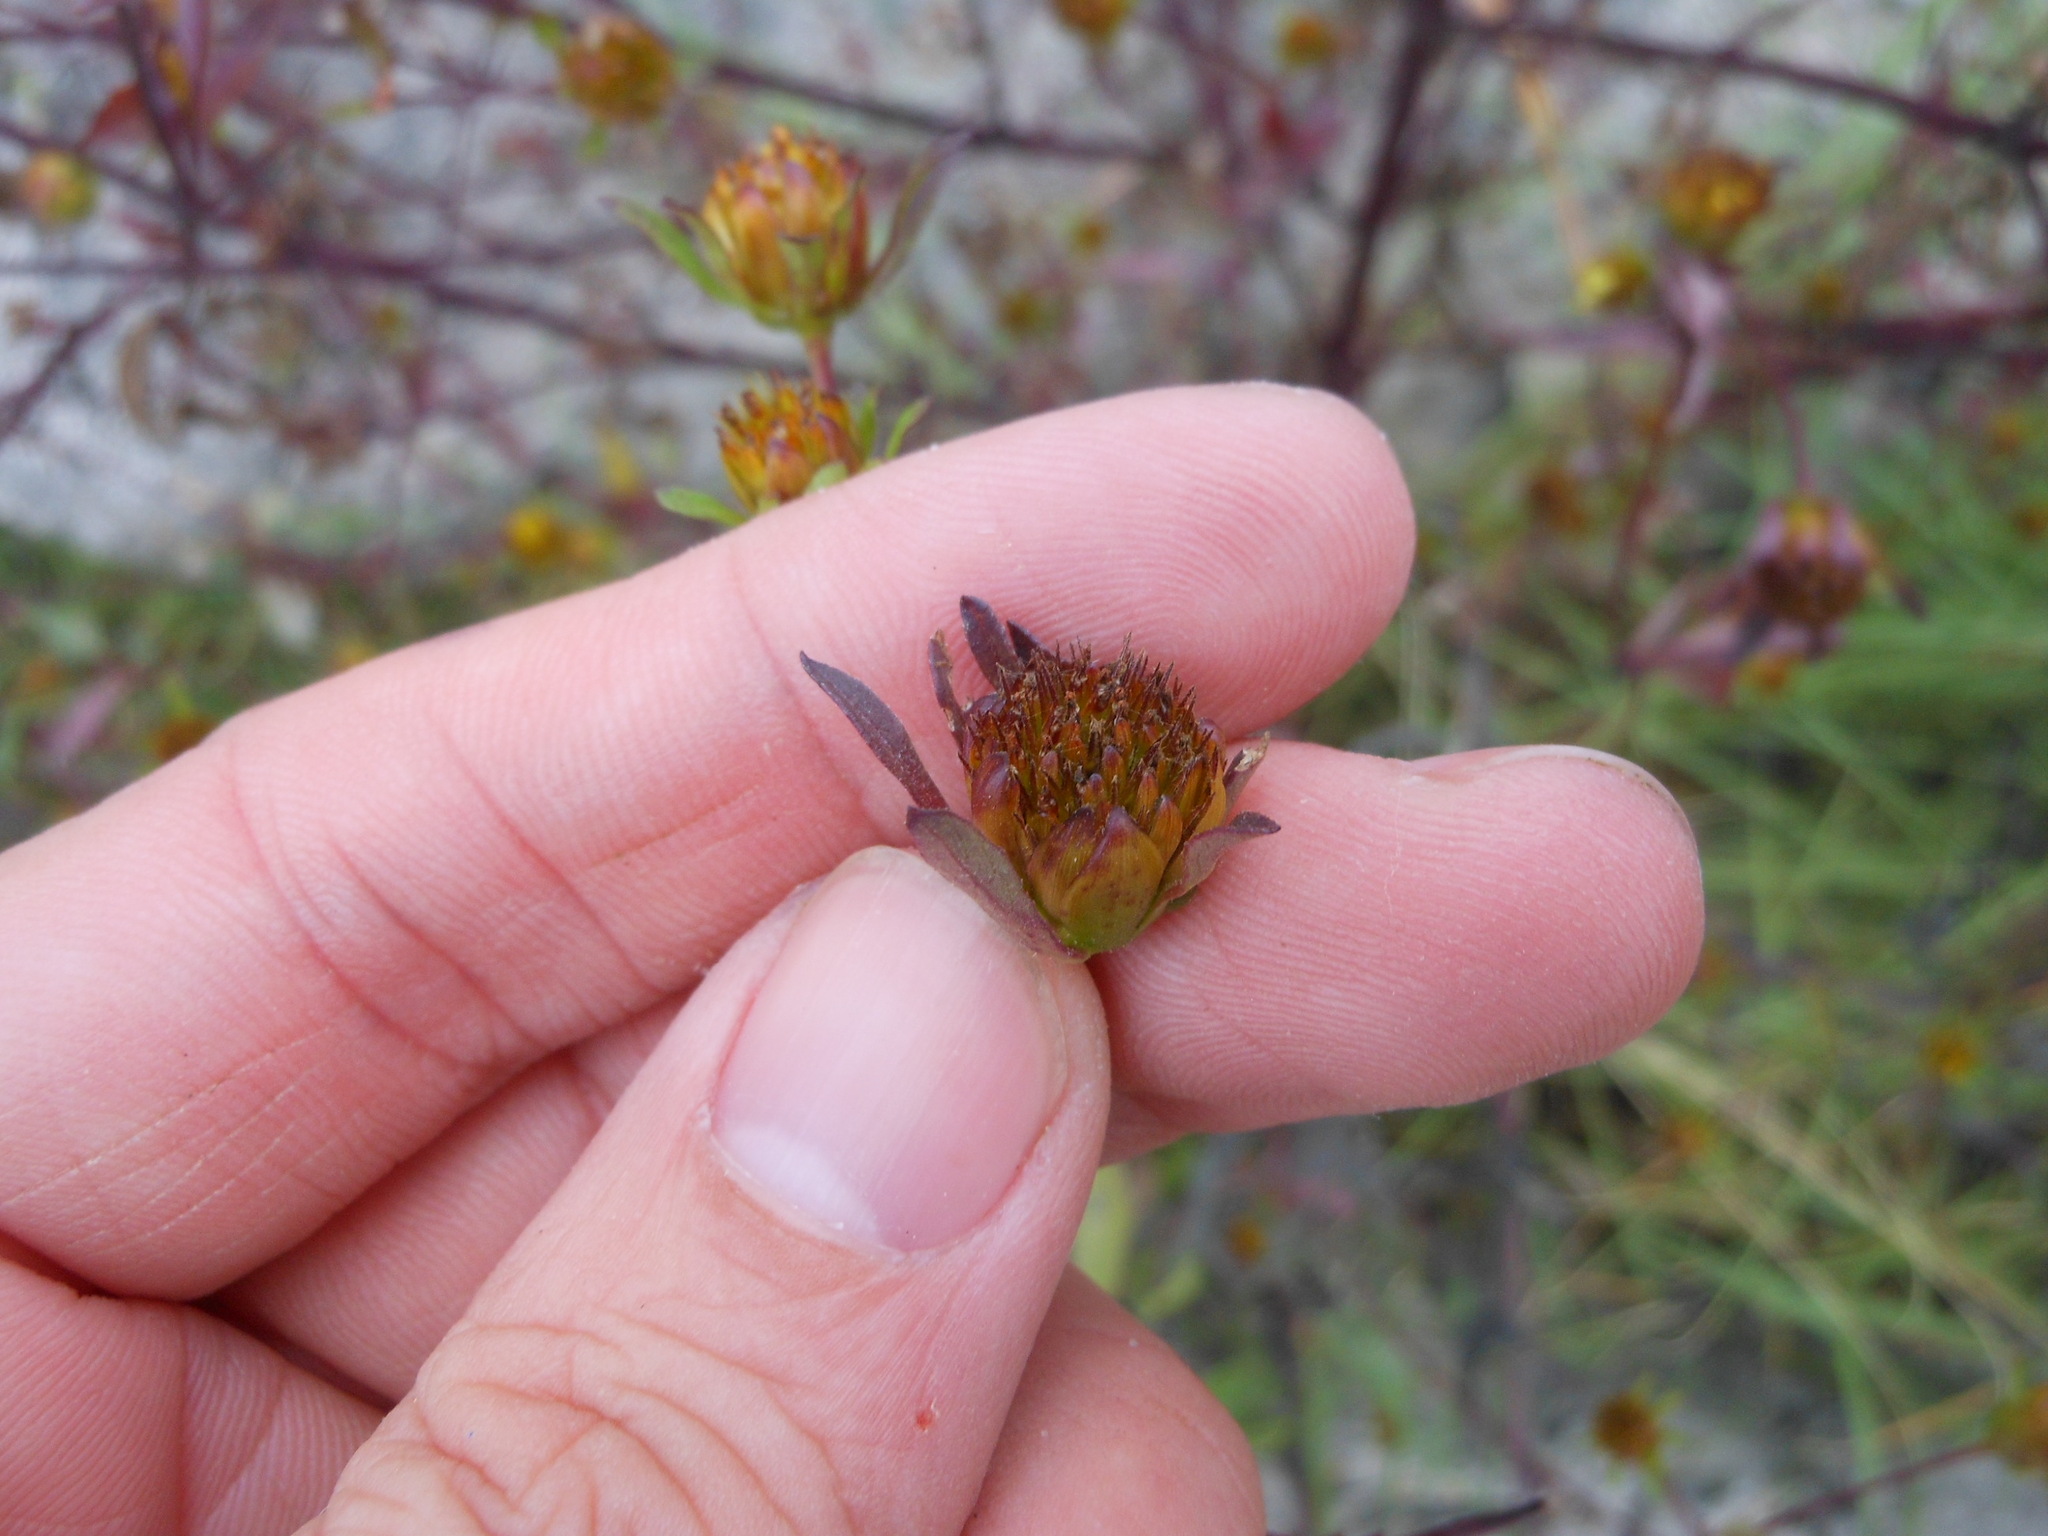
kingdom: Plantae
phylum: Tracheophyta
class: Magnoliopsida
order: Asterales
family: Asteraceae
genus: Bidens
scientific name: Bidens frondosa
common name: Beggarticks
